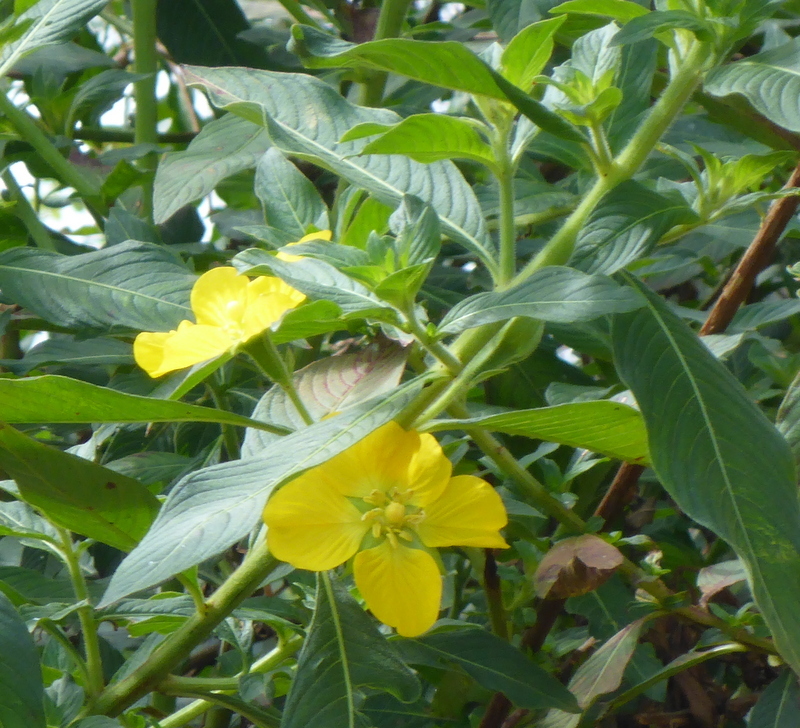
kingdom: Plantae
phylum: Tracheophyta
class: Magnoliopsida
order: Myrtales
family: Onagraceae
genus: Ludwigia
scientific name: Ludwigia peruviana
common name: Peruvian primrose-willow
